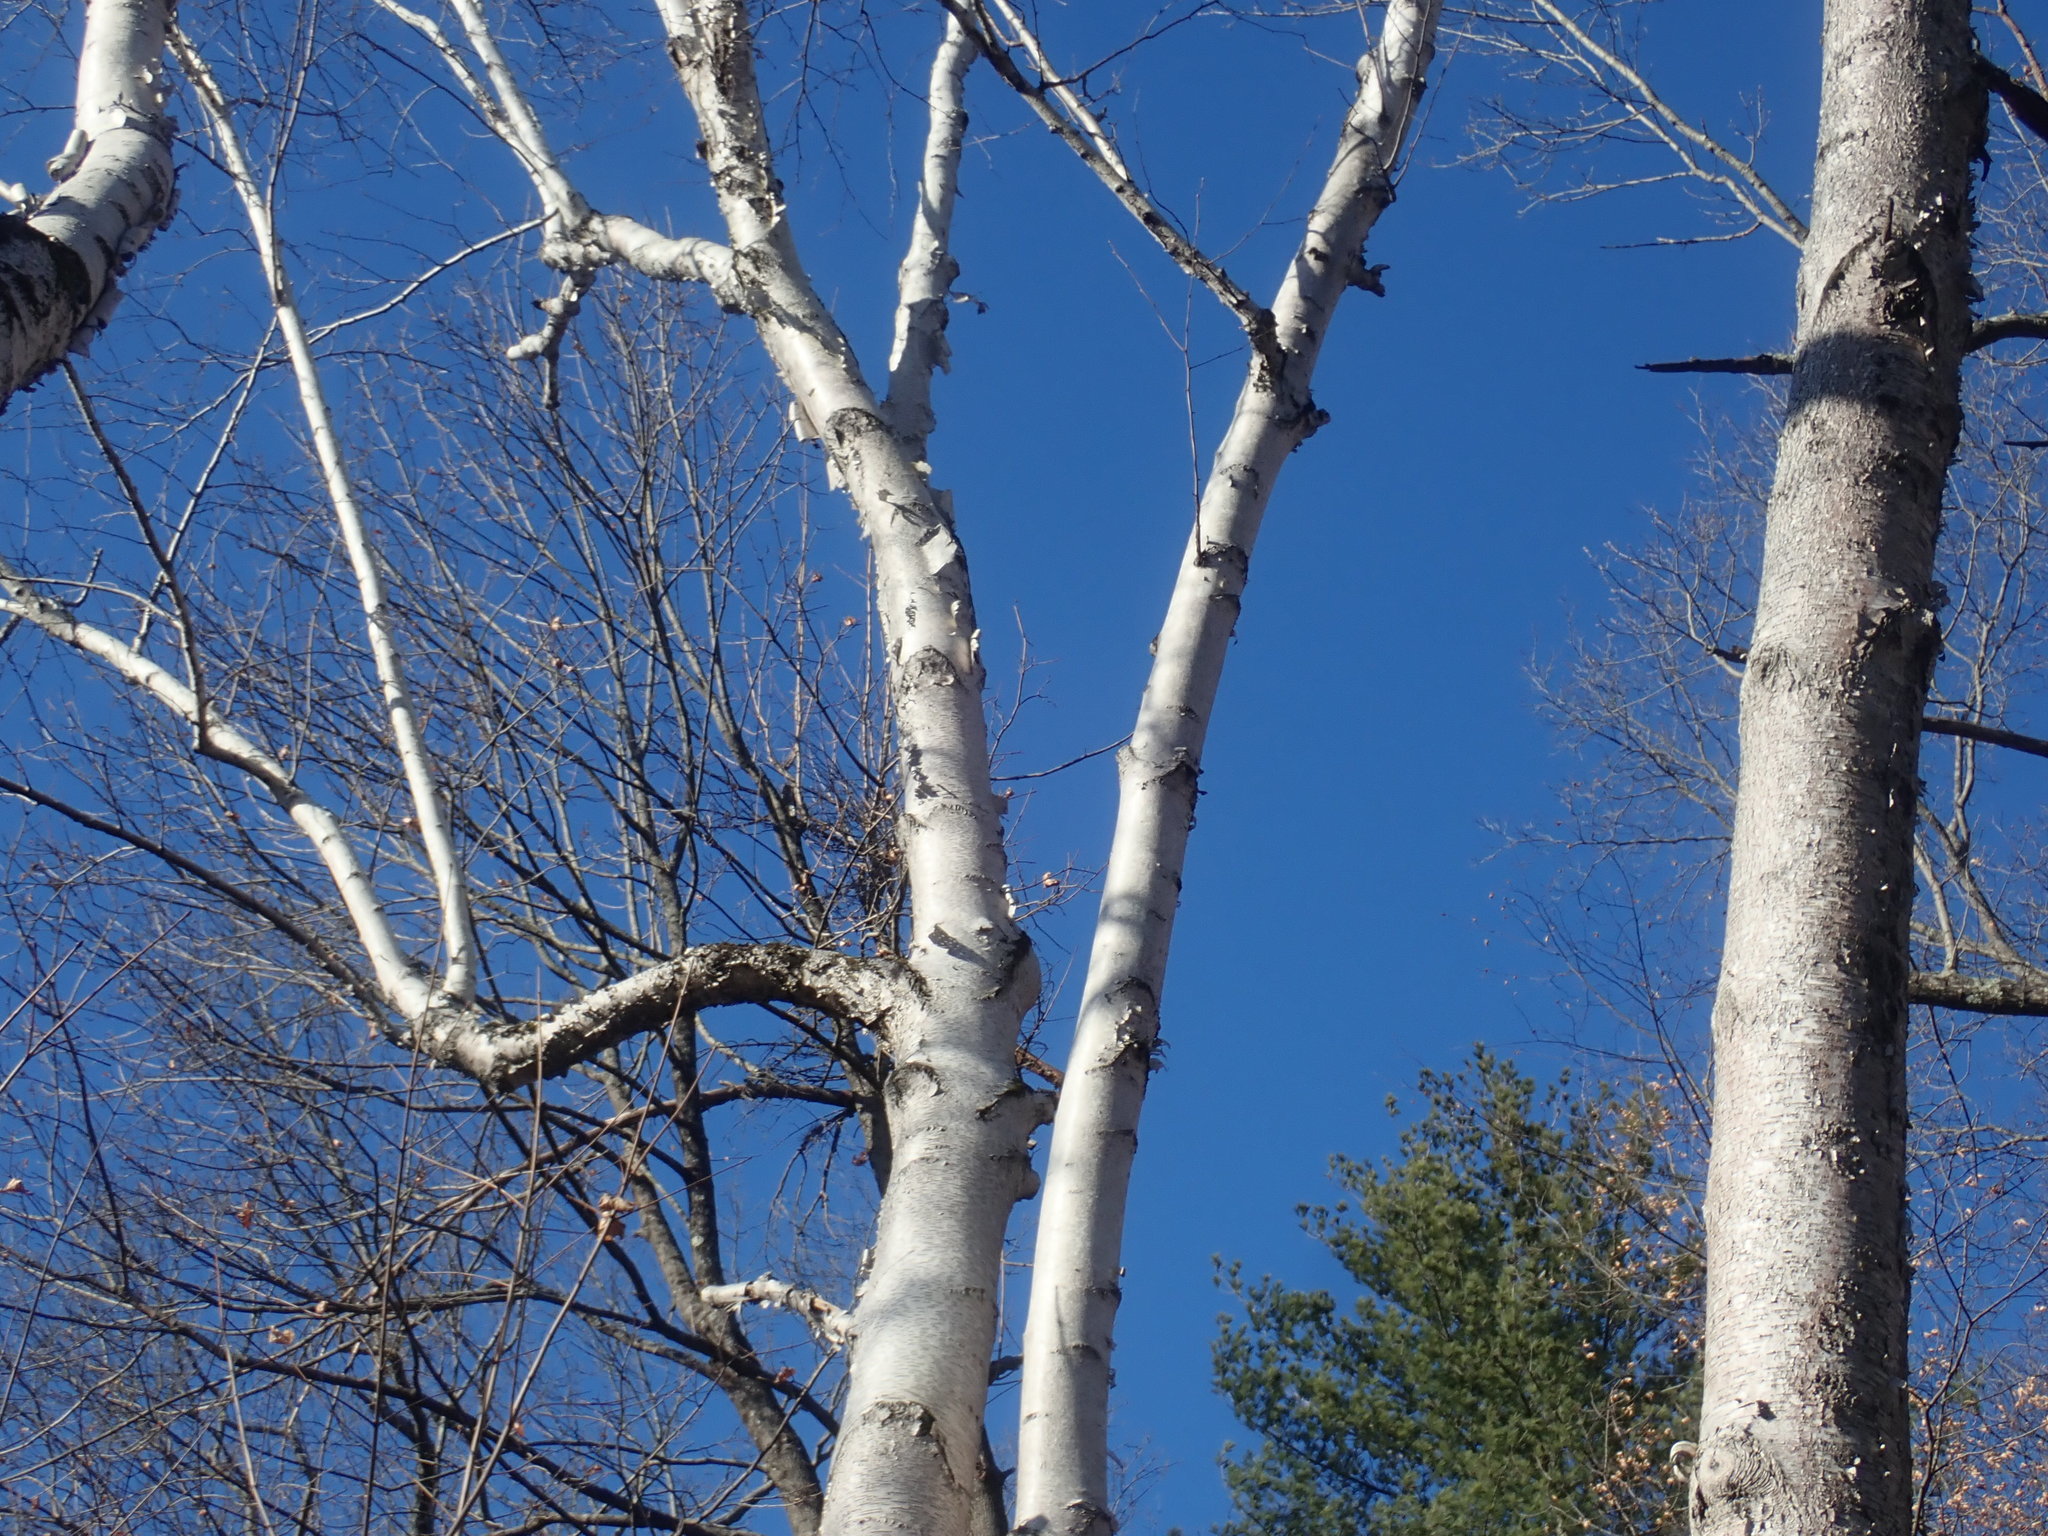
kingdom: Plantae
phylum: Tracheophyta
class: Magnoliopsida
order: Fagales
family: Betulaceae
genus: Betula
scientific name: Betula papyrifera
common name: Paper birch
